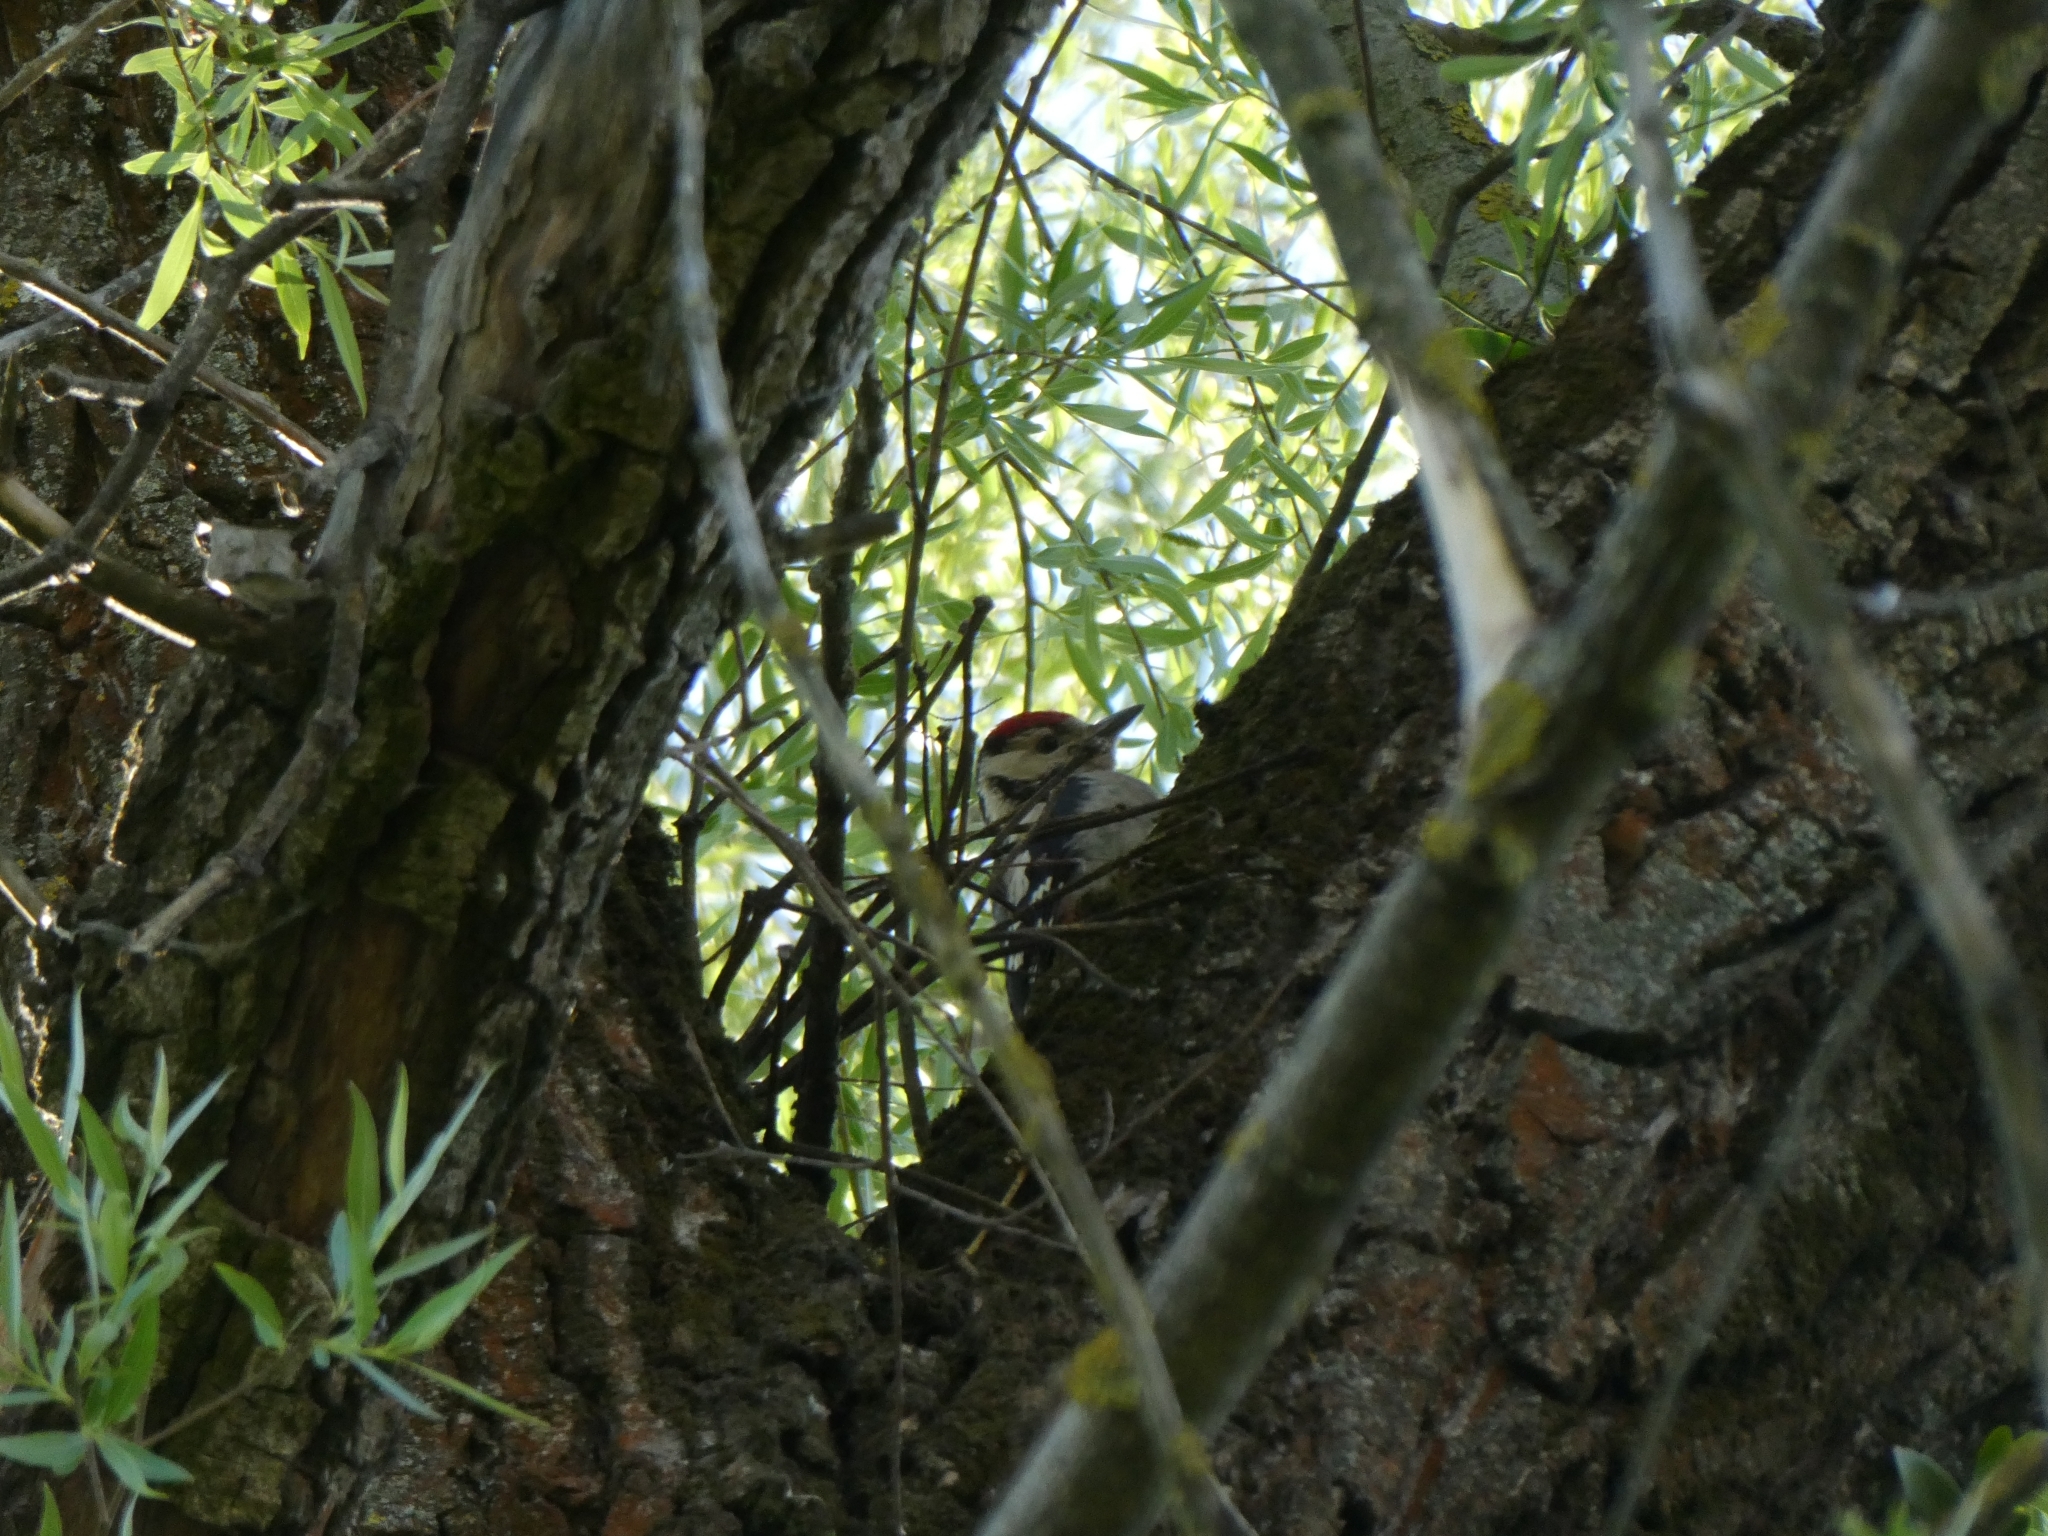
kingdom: Animalia
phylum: Chordata
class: Aves
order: Piciformes
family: Picidae
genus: Dryobates
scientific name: Dryobates minor
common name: Lesser spotted woodpecker
